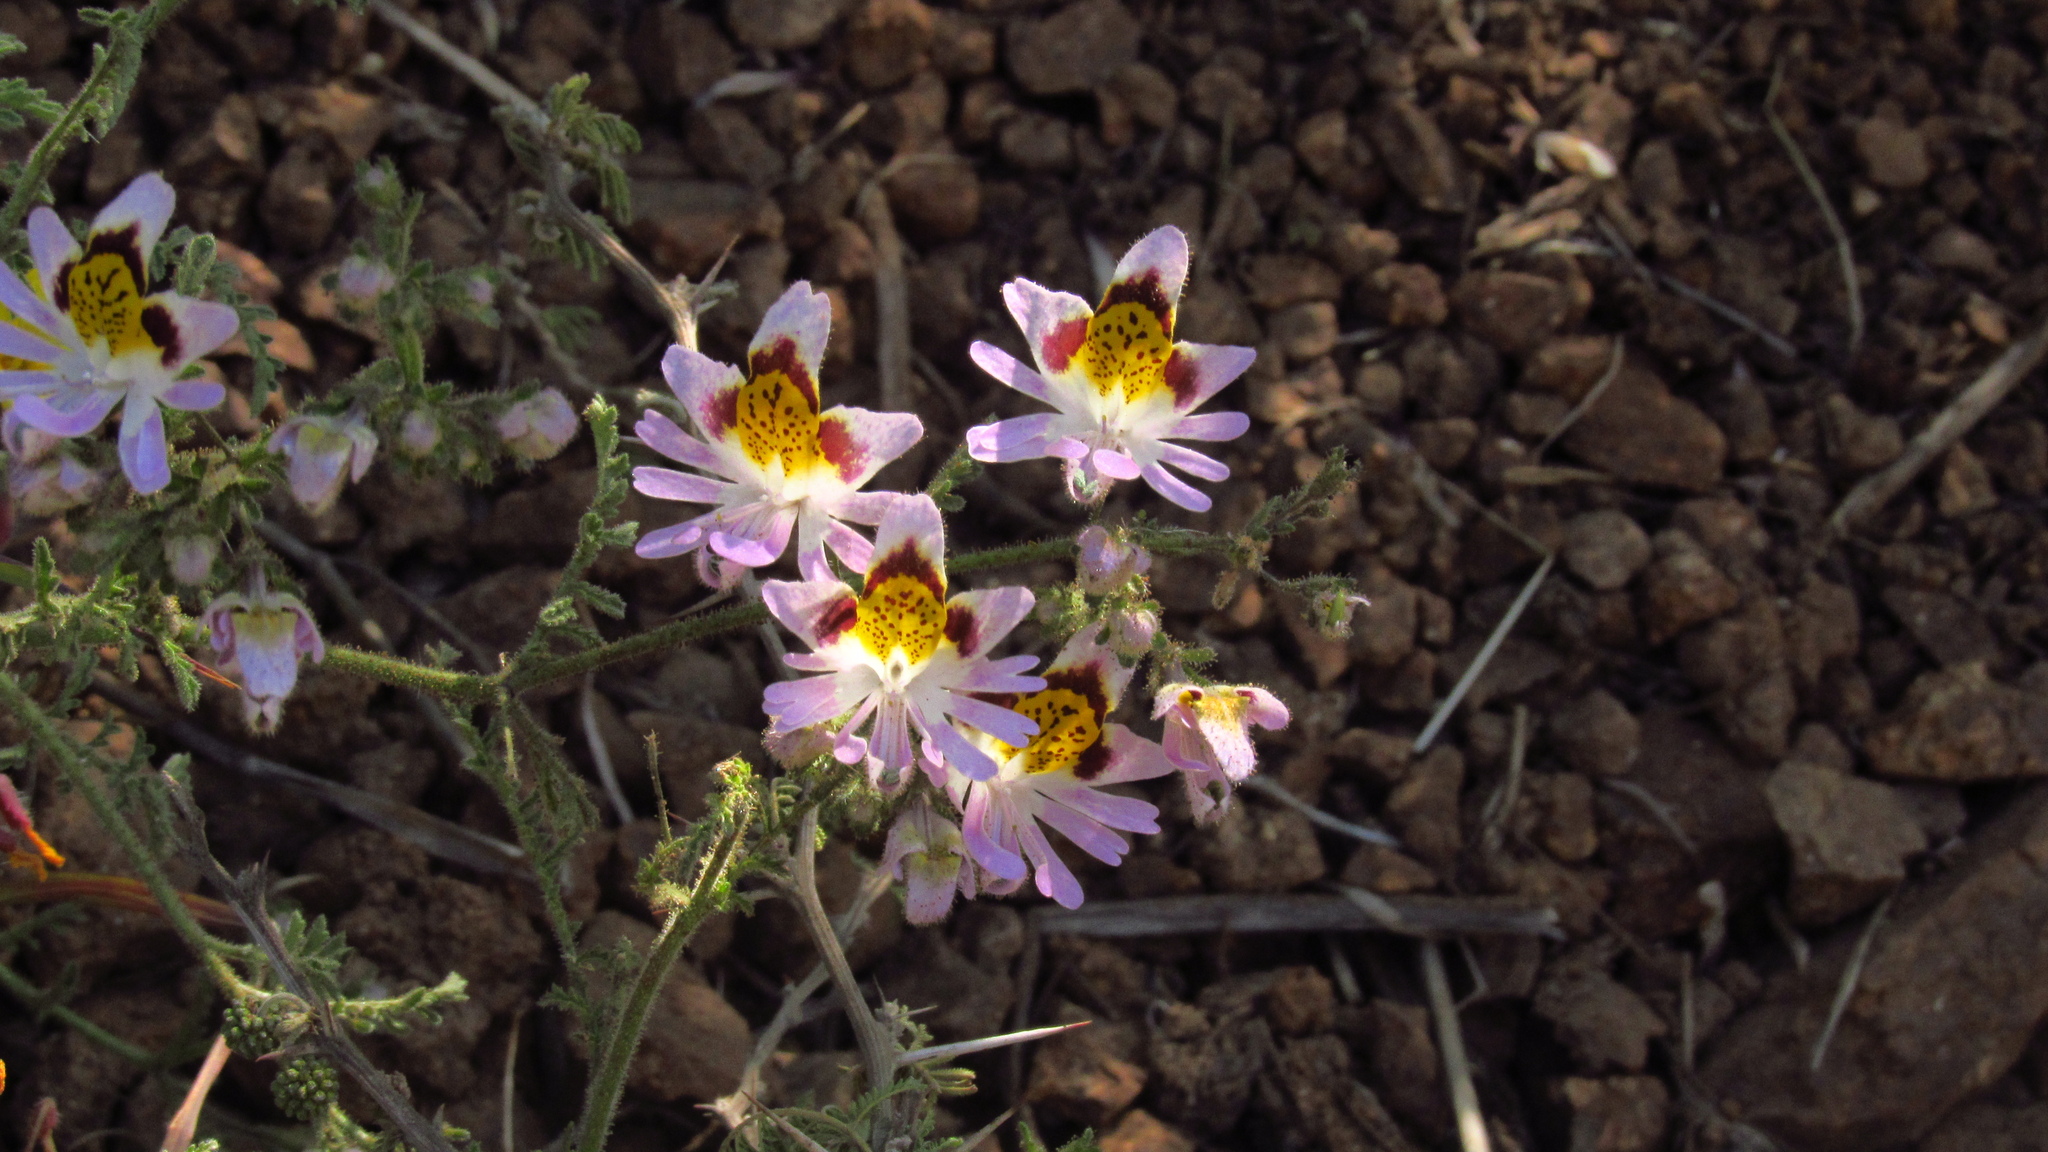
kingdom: Plantae
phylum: Tracheophyta
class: Magnoliopsida
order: Solanales
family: Solanaceae
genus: Schizanthus
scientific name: Schizanthus porrigens
